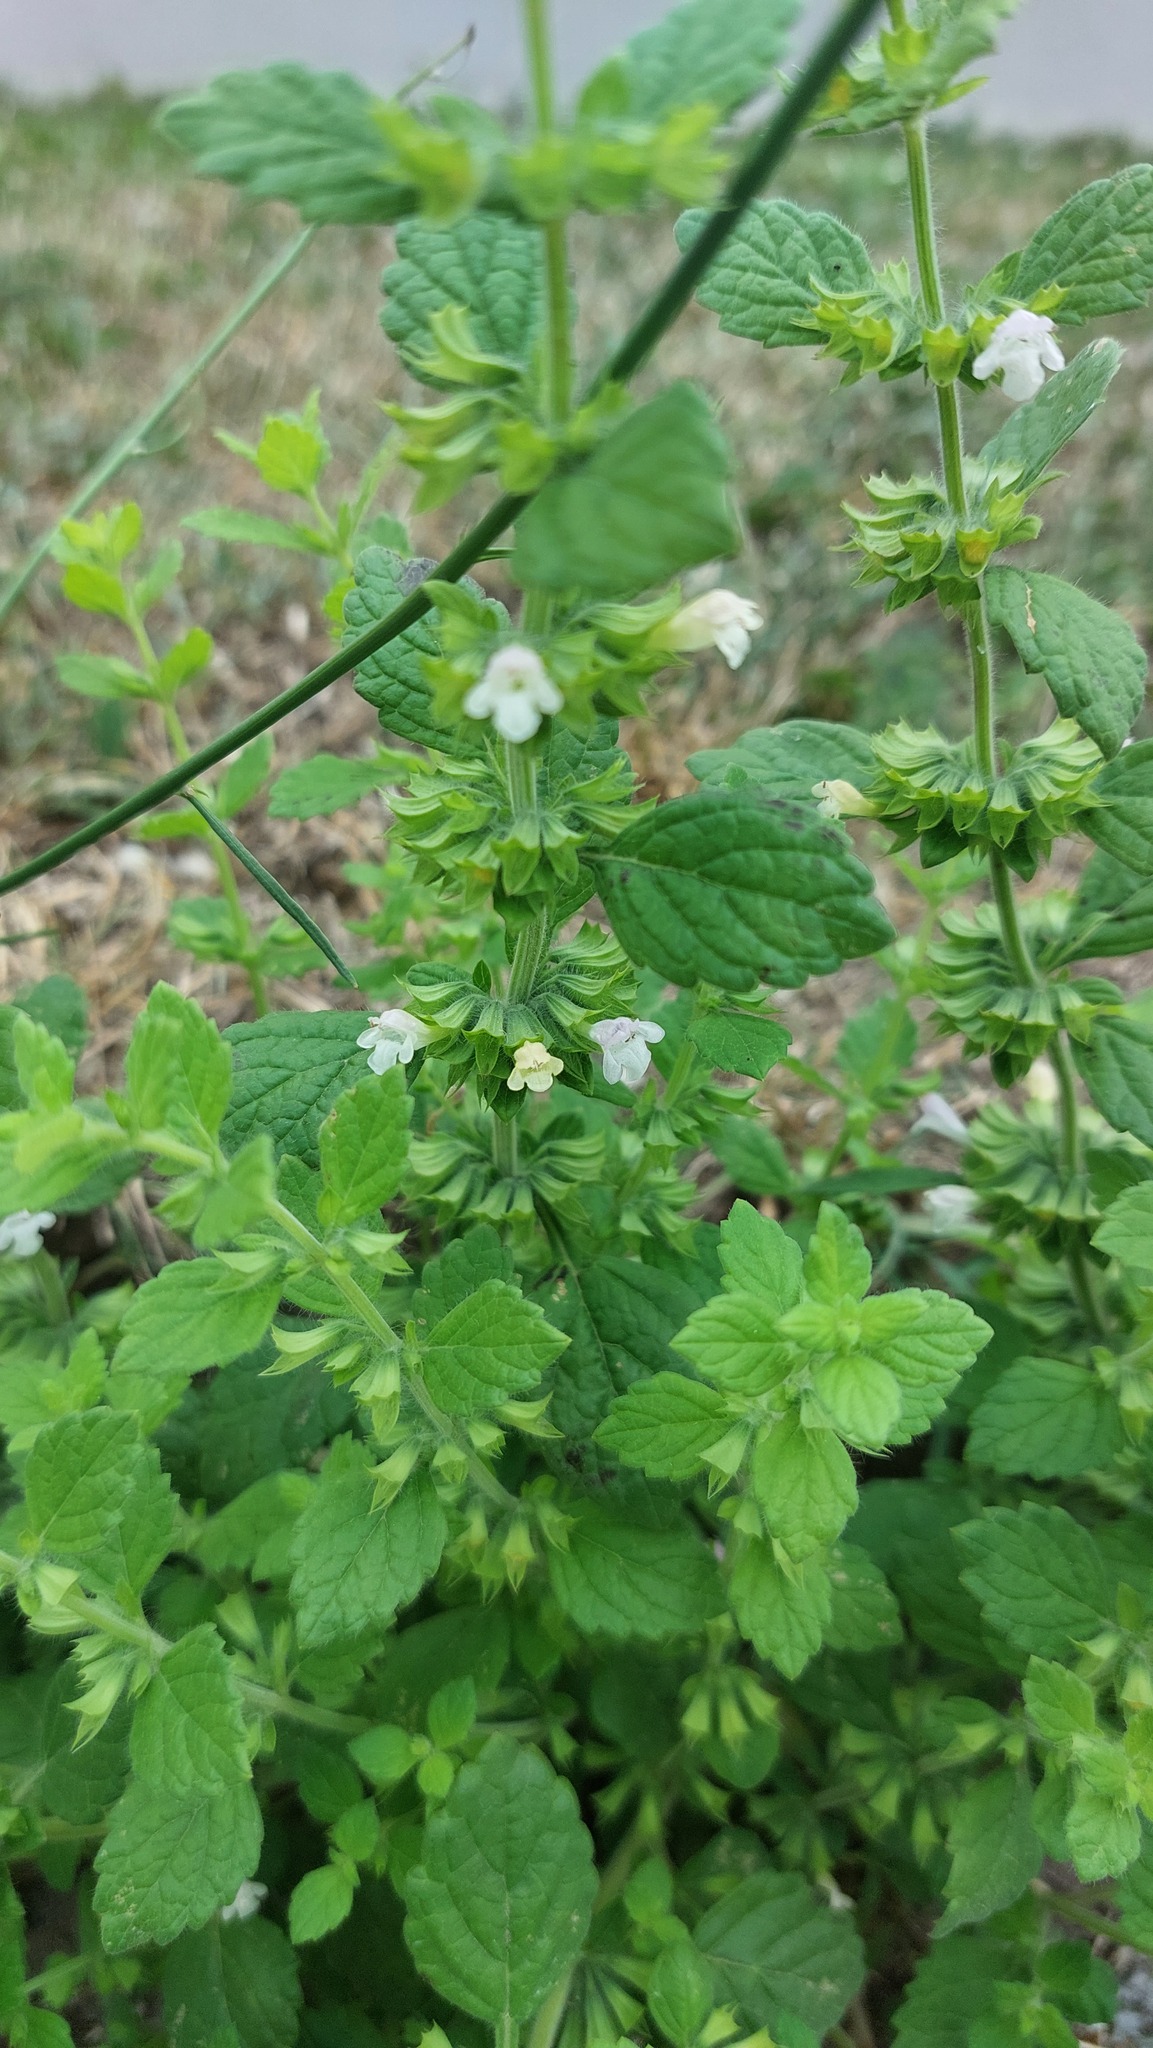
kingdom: Plantae
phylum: Tracheophyta
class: Magnoliopsida
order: Lamiales
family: Lamiaceae
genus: Melissa
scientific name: Melissa officinalis
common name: Balm
